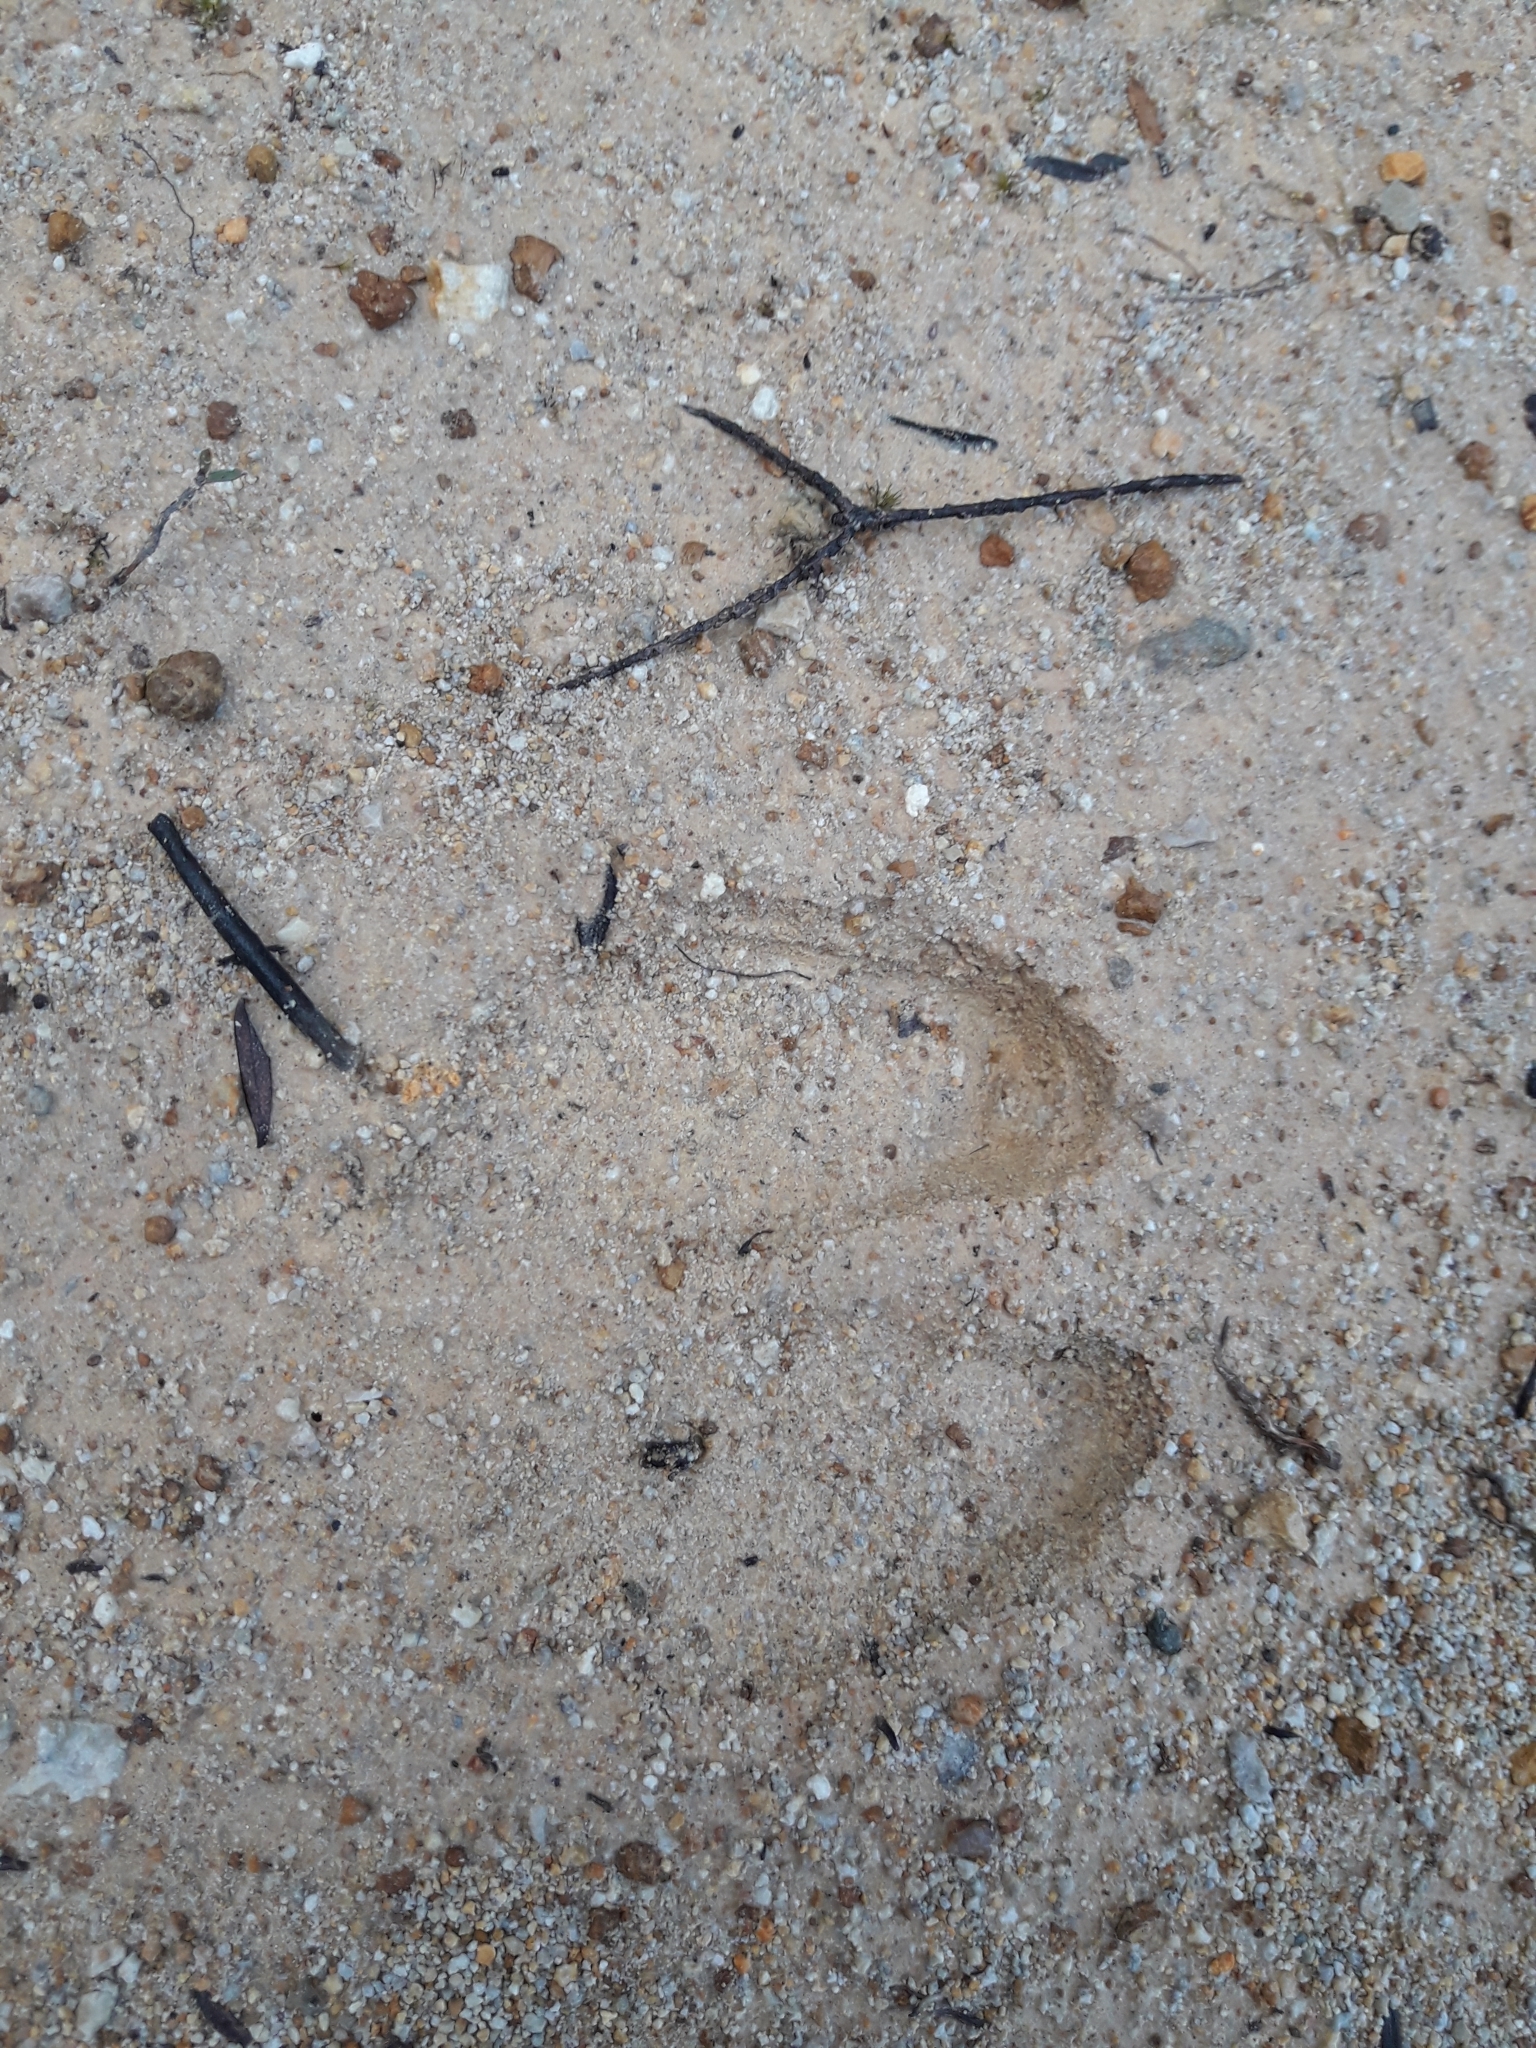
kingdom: Animalia
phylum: Chordata
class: Mammalia
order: Artiodactyla
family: Suidae
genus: Sus
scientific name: Sus scrofa
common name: Wild boar
